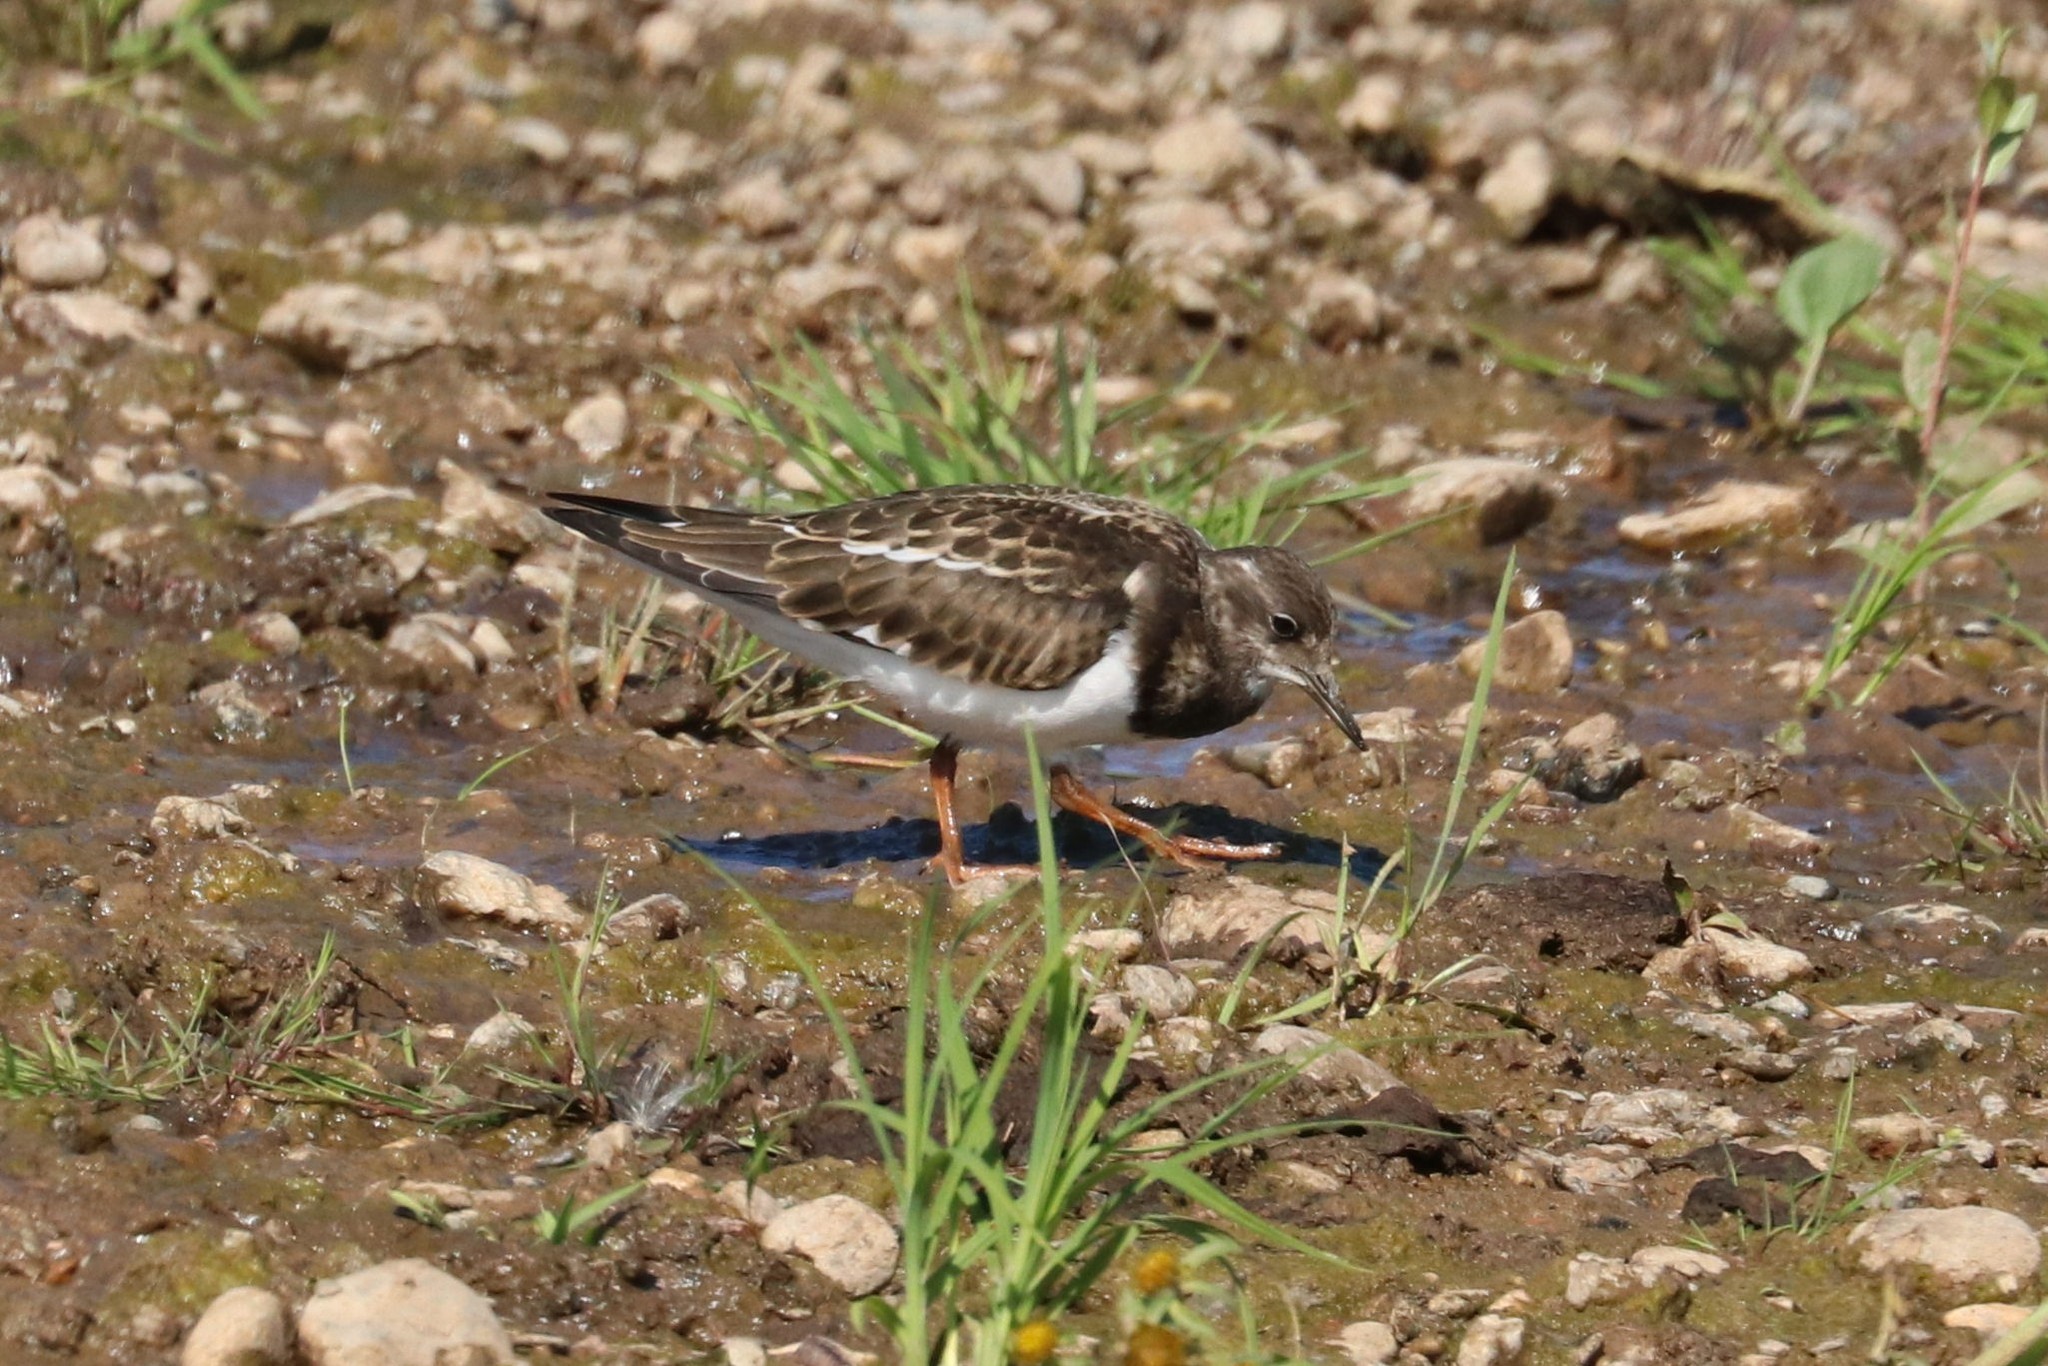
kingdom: Animalia
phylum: Chordata
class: Aves
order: Charadriiformes
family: Scolopacidae
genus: Arenaria
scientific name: Arenaria interpres
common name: Ruddy turnstone
